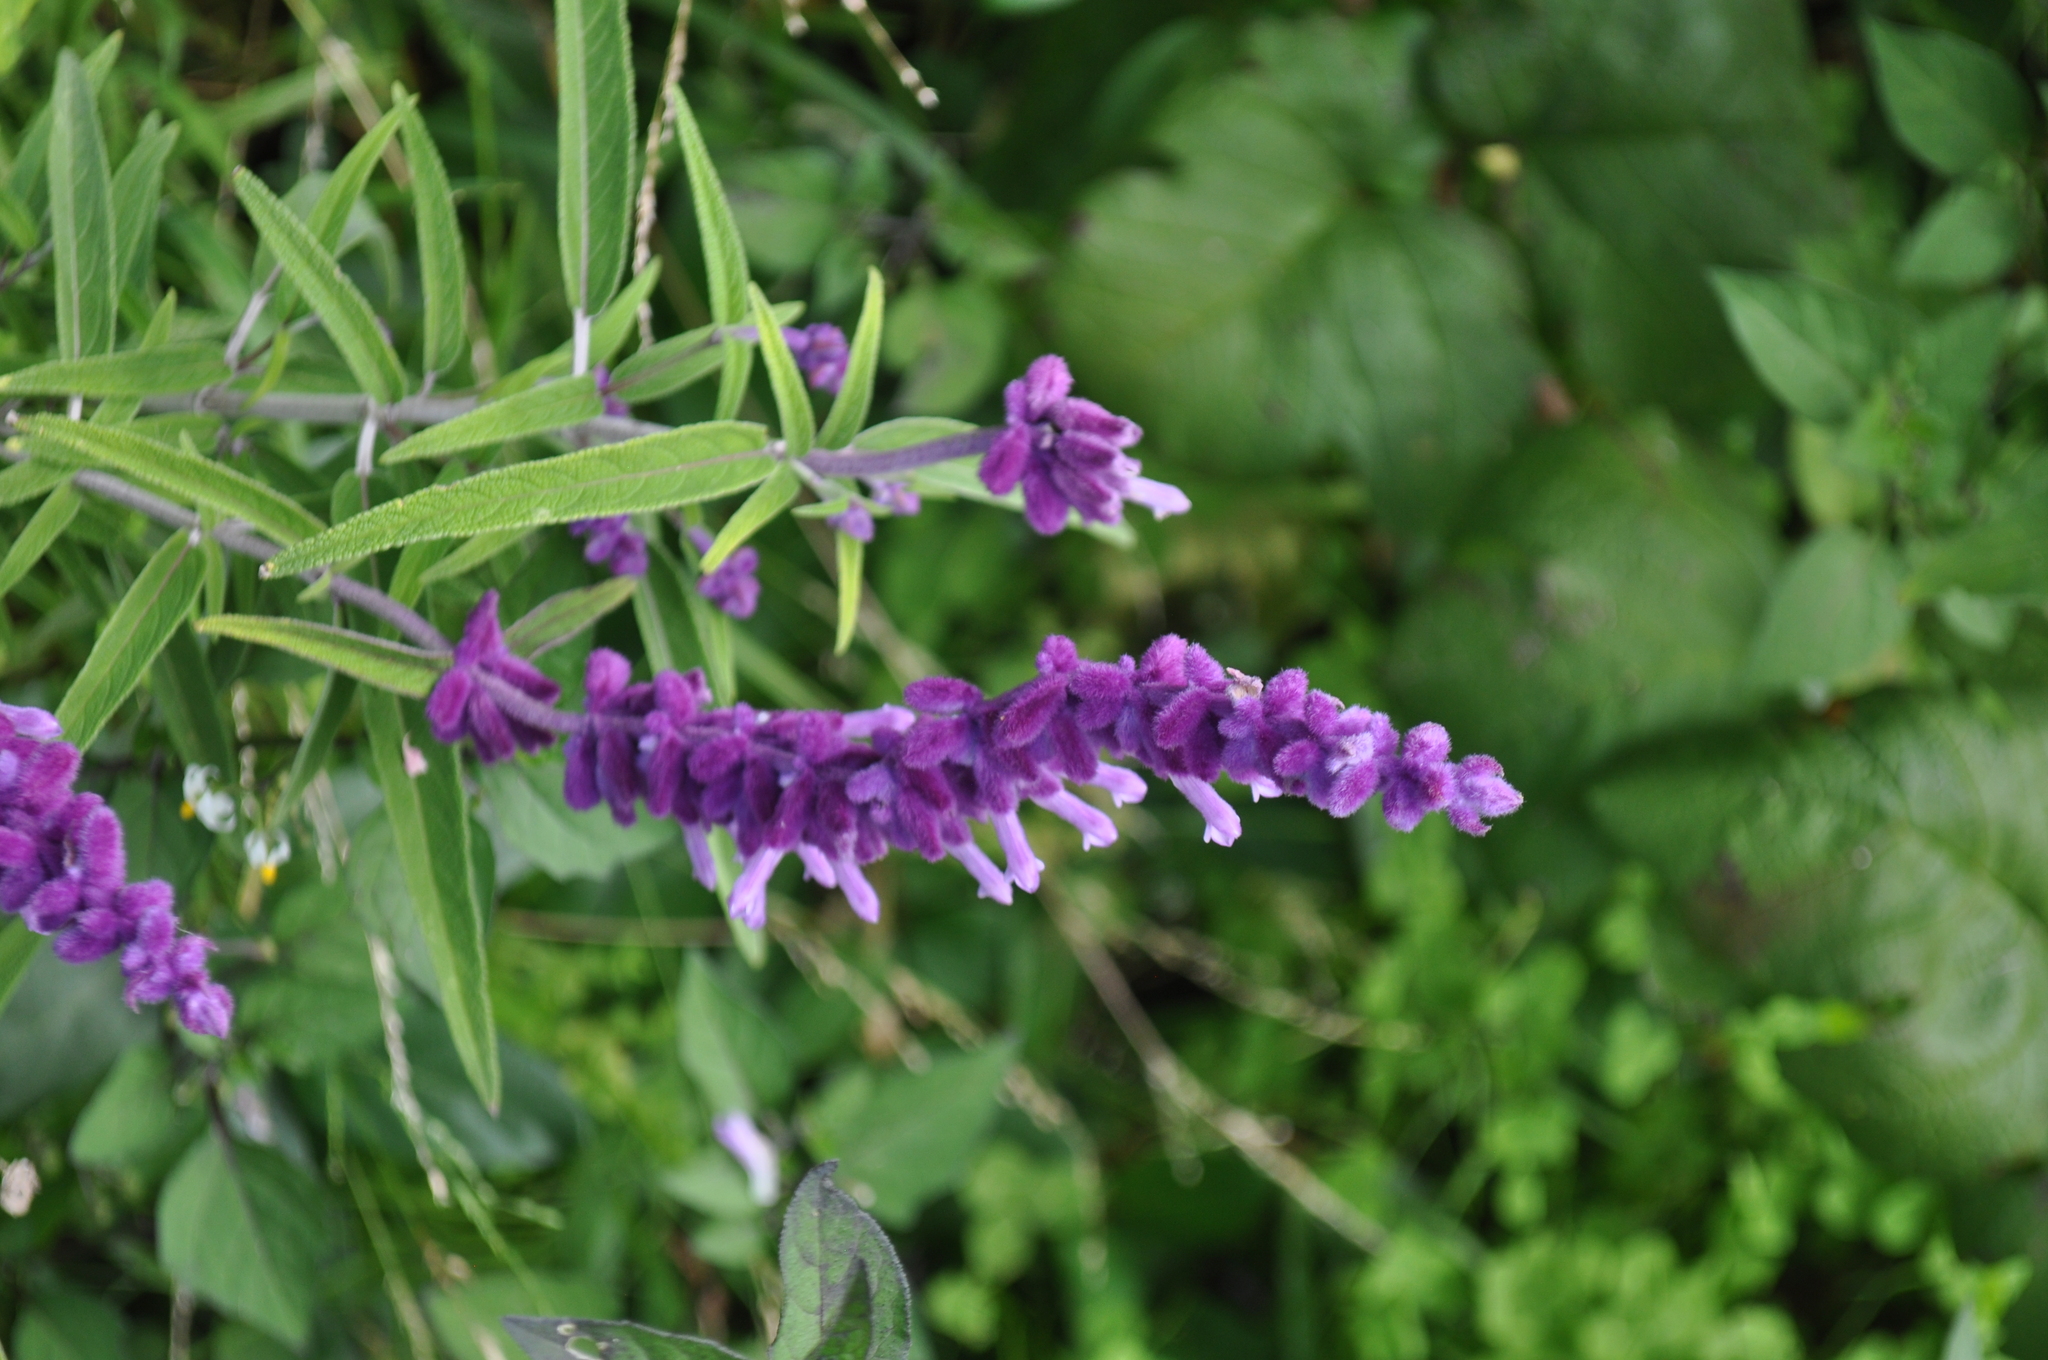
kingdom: Plantae
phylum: Tracheophyta
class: Magnoliopsida
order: Lamiales
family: Lamiaceae
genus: Salvia
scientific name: Salvia leucantha
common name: Mexican bush sage
